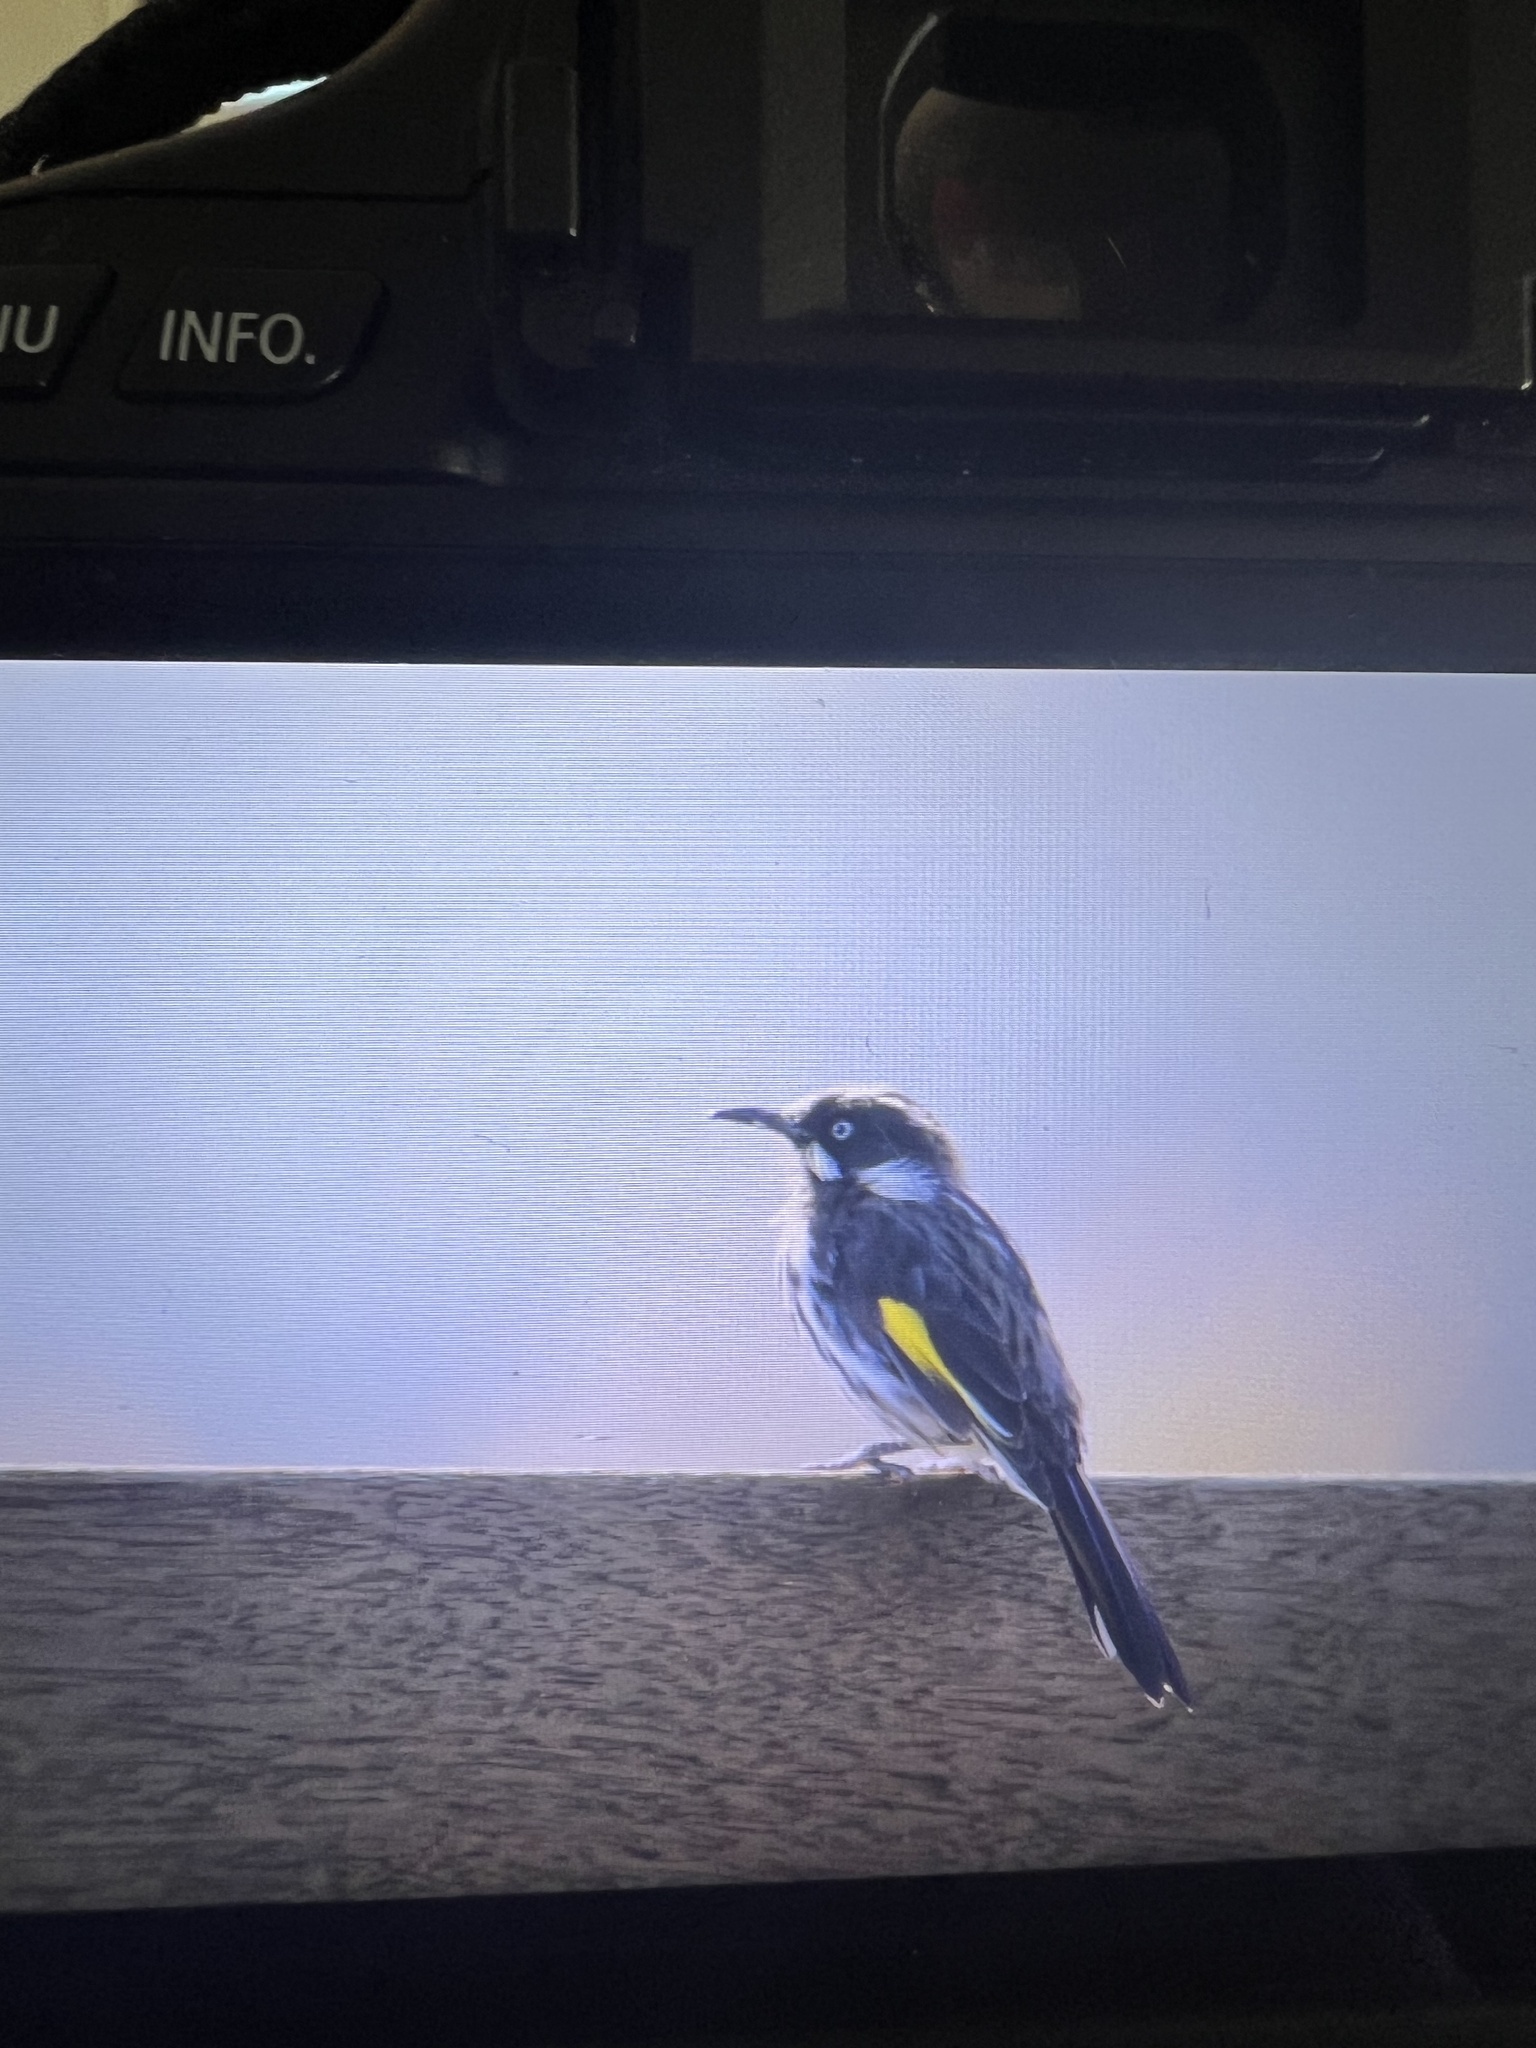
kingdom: Animalia
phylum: Chordata
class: Aves
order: Passeriformes
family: Meliphagidae
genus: Phylidonyris
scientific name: Phylidonyris novaehollandiae
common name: New holland honeyeater
